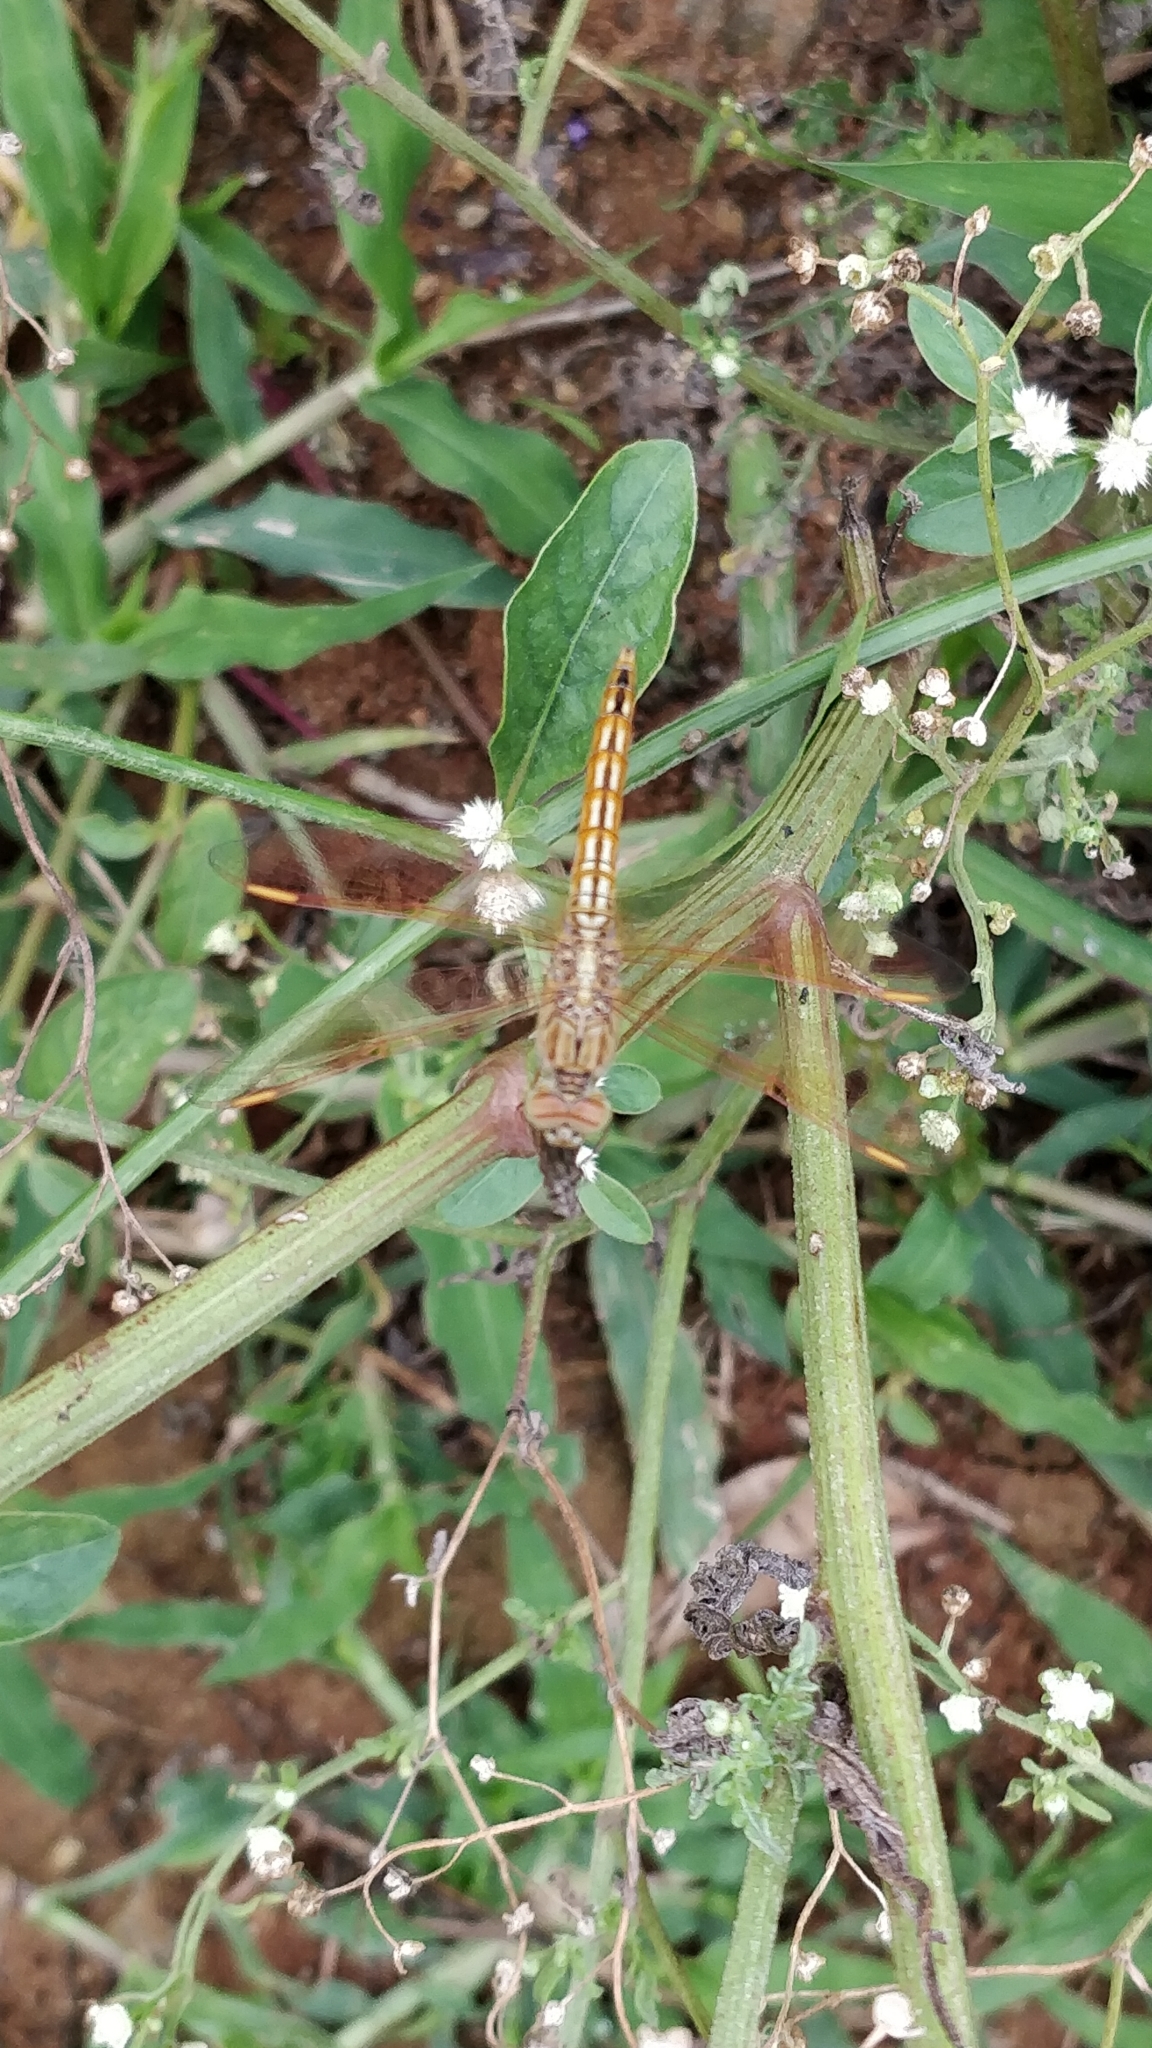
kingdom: Animalia
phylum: Arthropoda
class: Insecta
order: Odonata
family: Libellulidae
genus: Brachythemis
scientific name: Brachythemis contaminata
